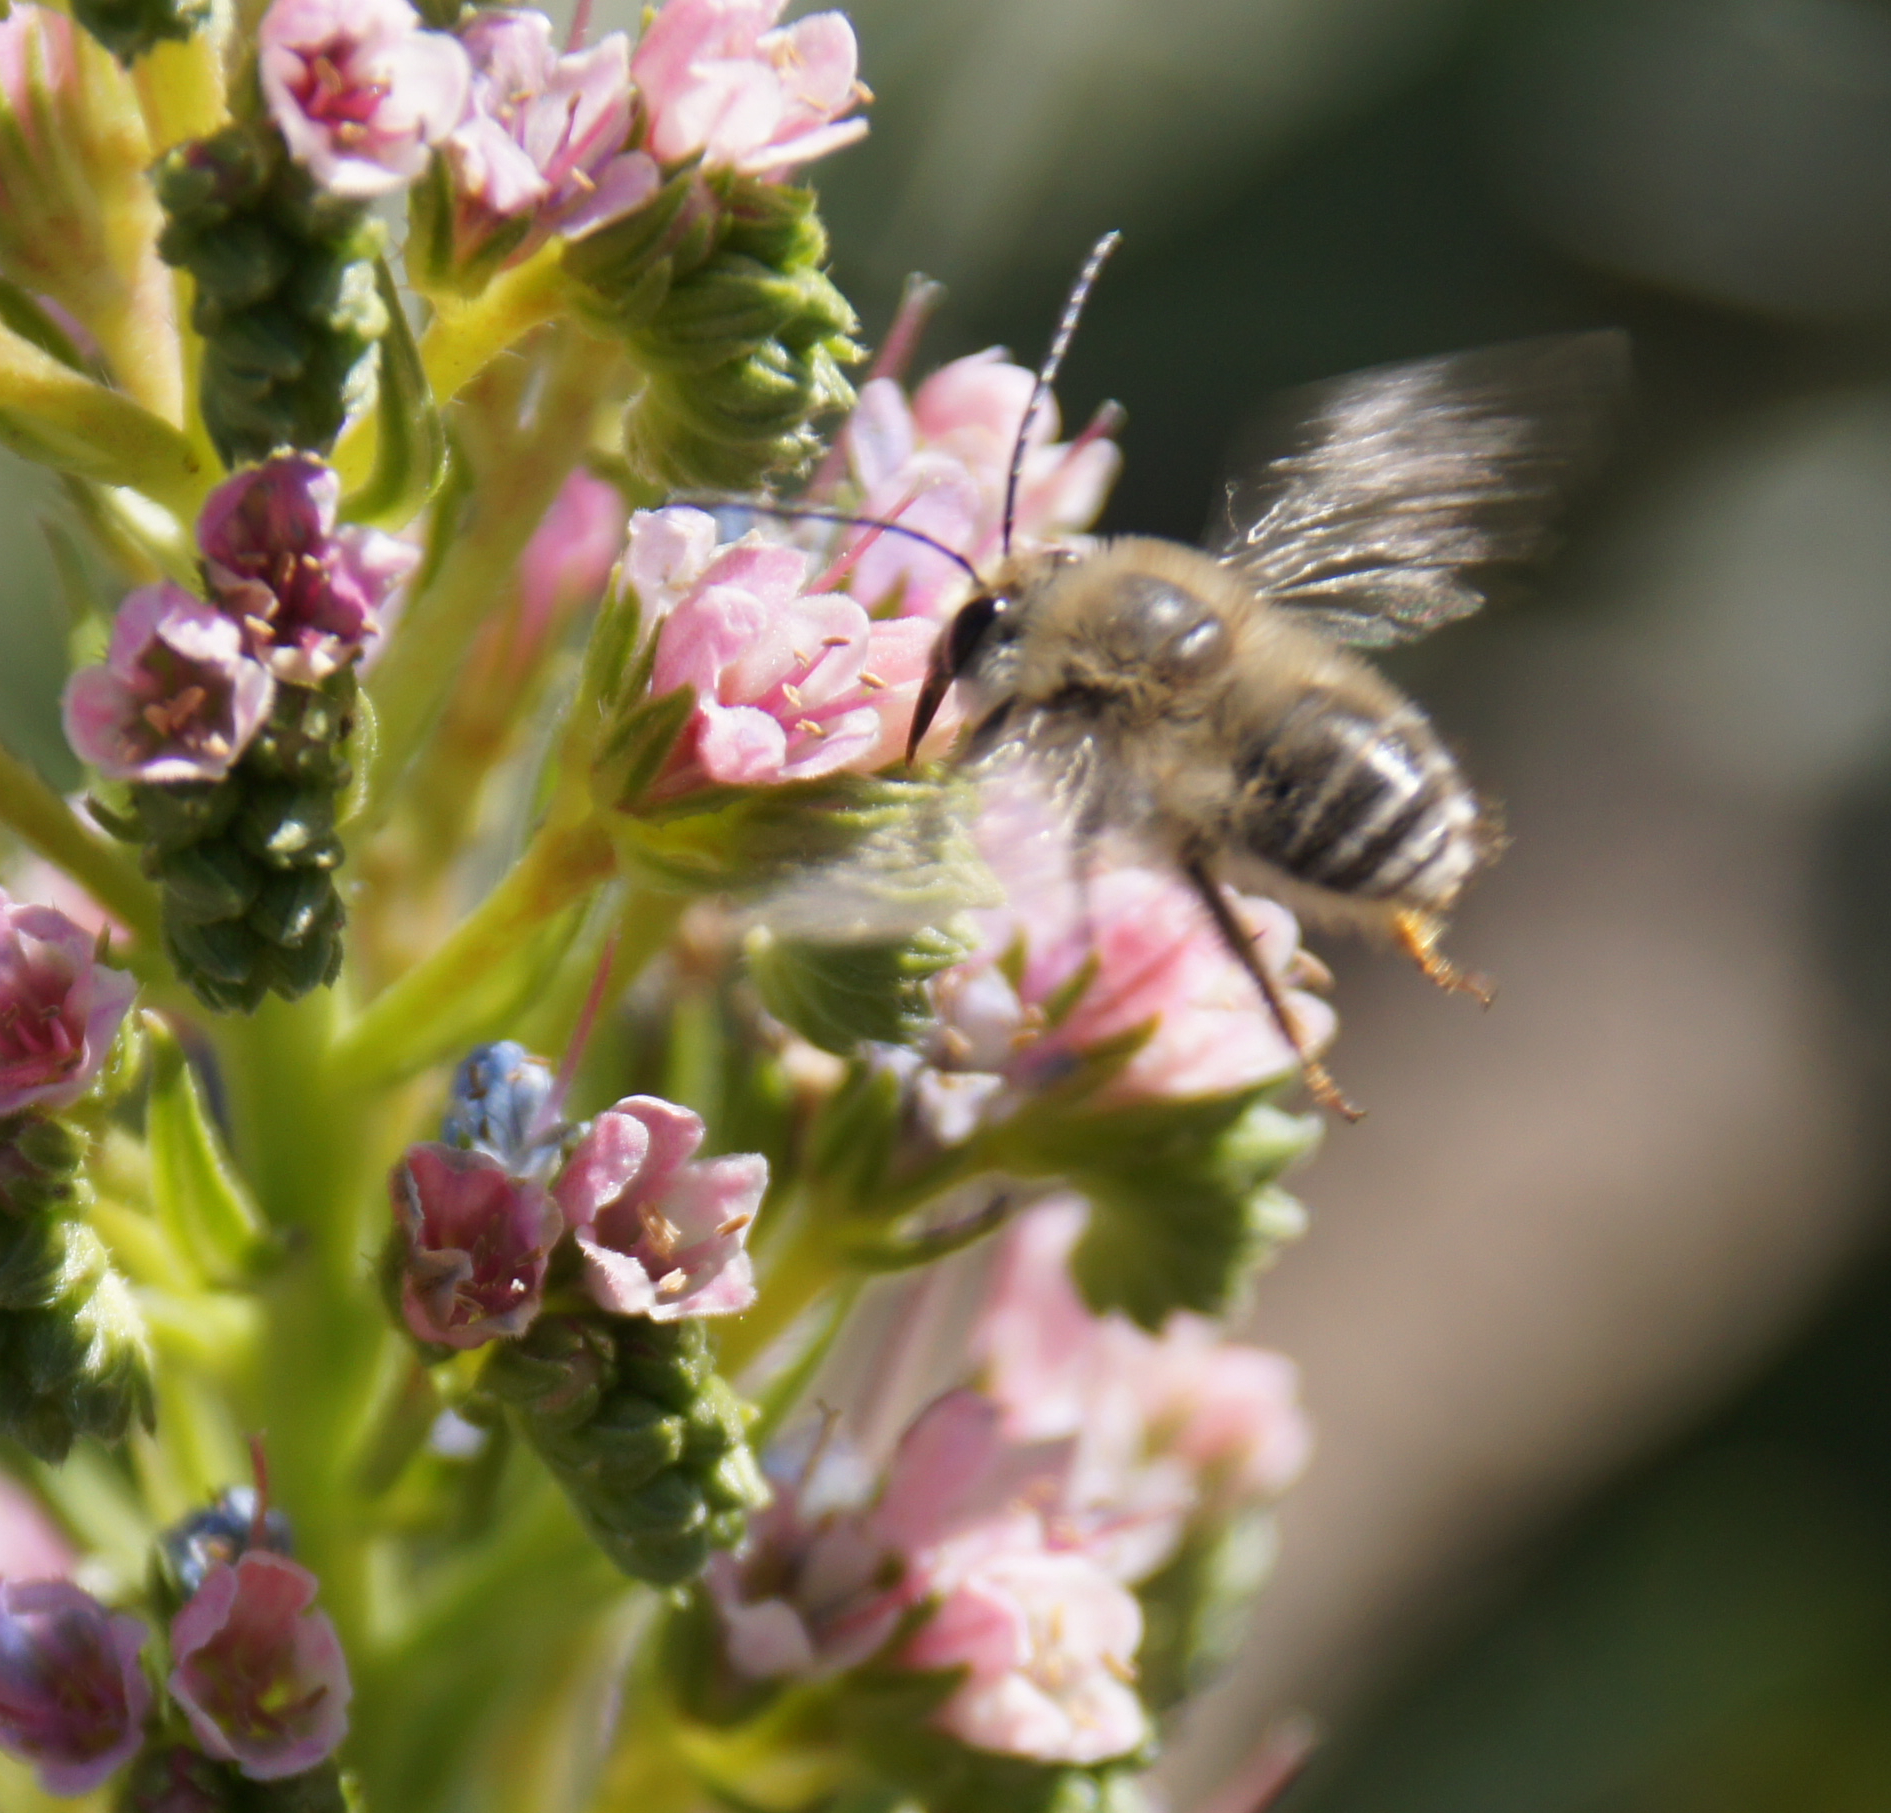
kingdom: Animalia
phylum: Arthropoda
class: Insecta
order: Hymenoptera
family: Apidae
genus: Eucera
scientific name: Eucera gracilipes
